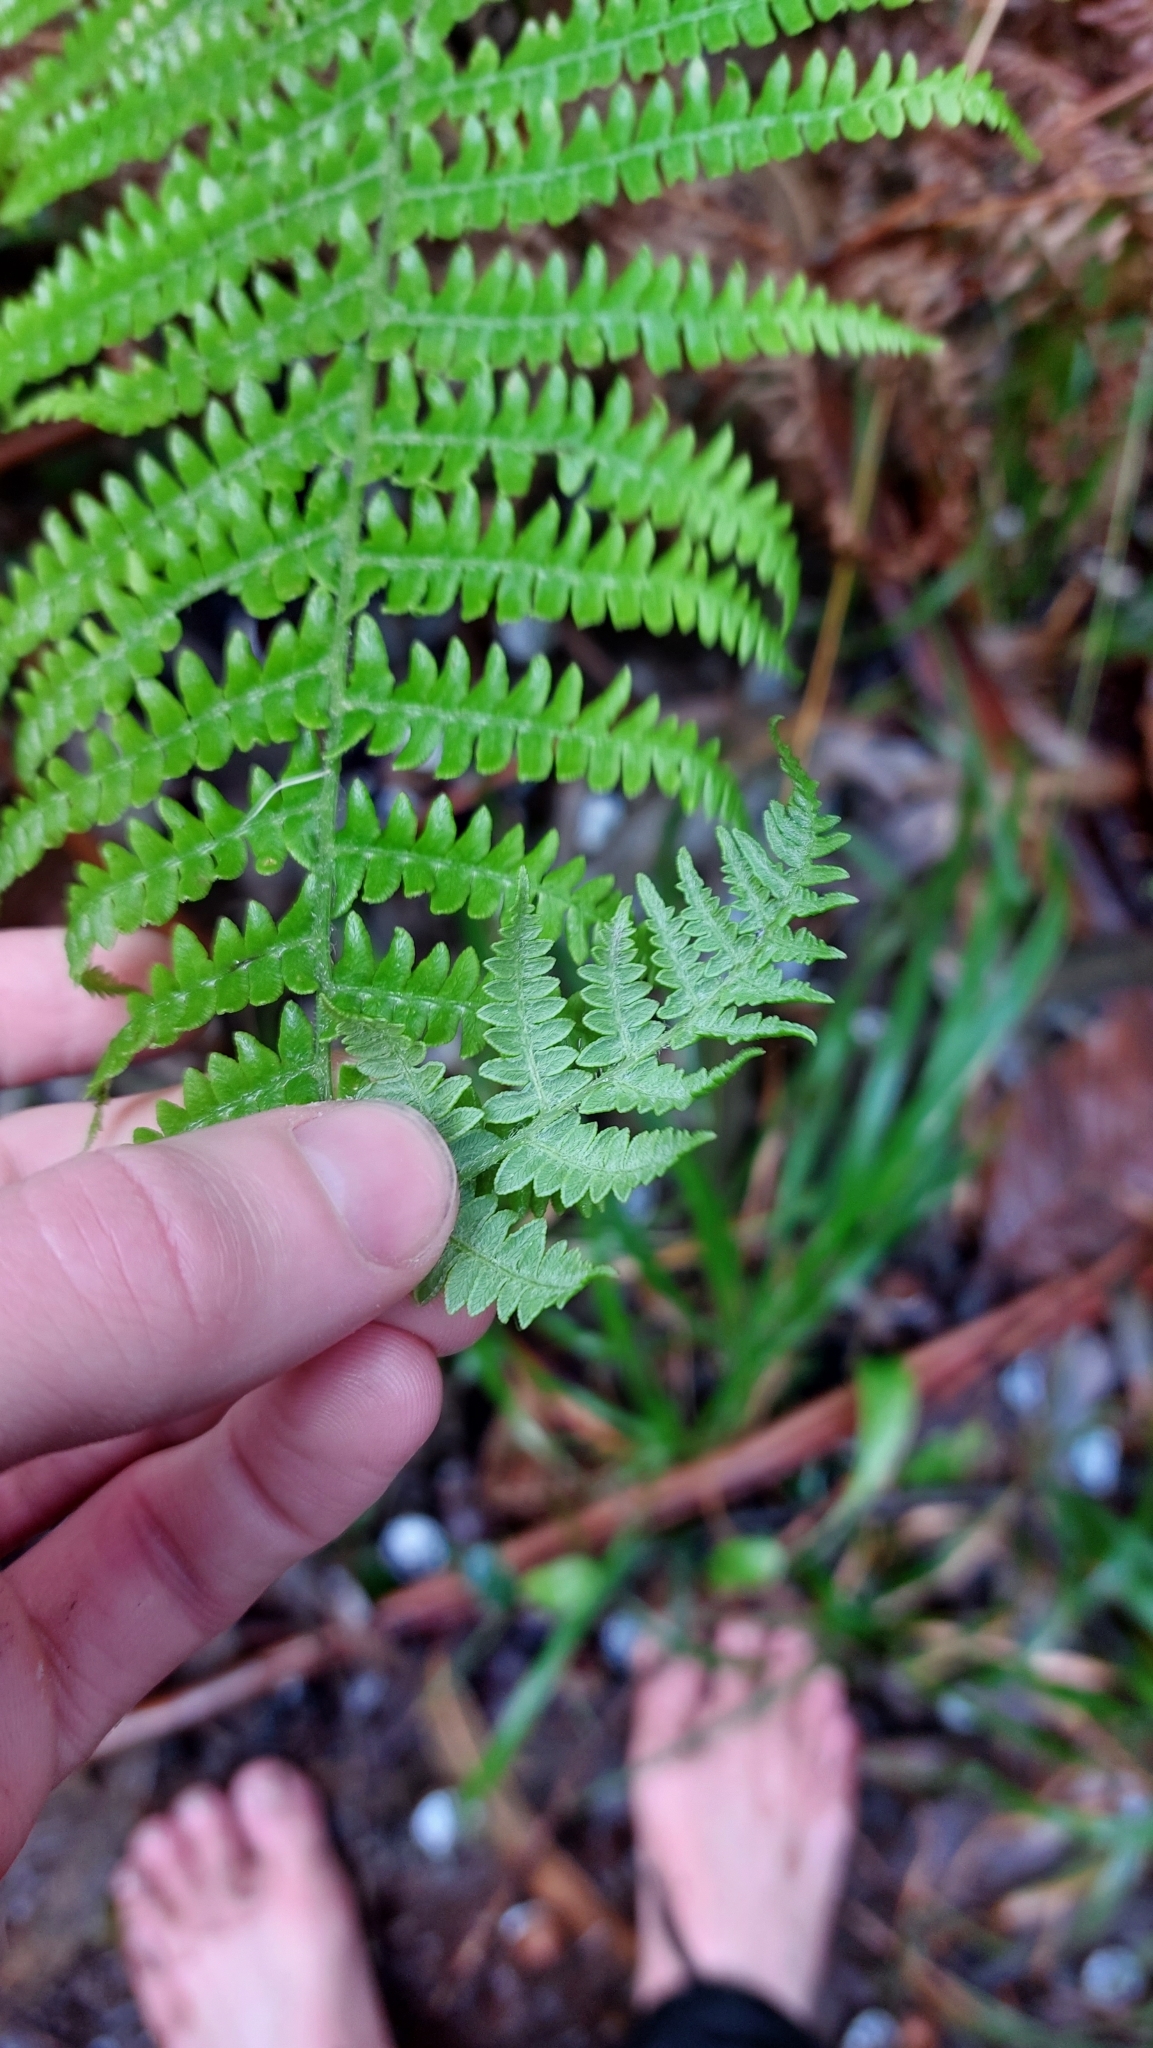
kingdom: Plantae
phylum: Tracheophyta
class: Polypodiopsida
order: Polypodiales
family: Dennstaedtiaceae
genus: Pteridium
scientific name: Pteridium aquilinum
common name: Bracken
